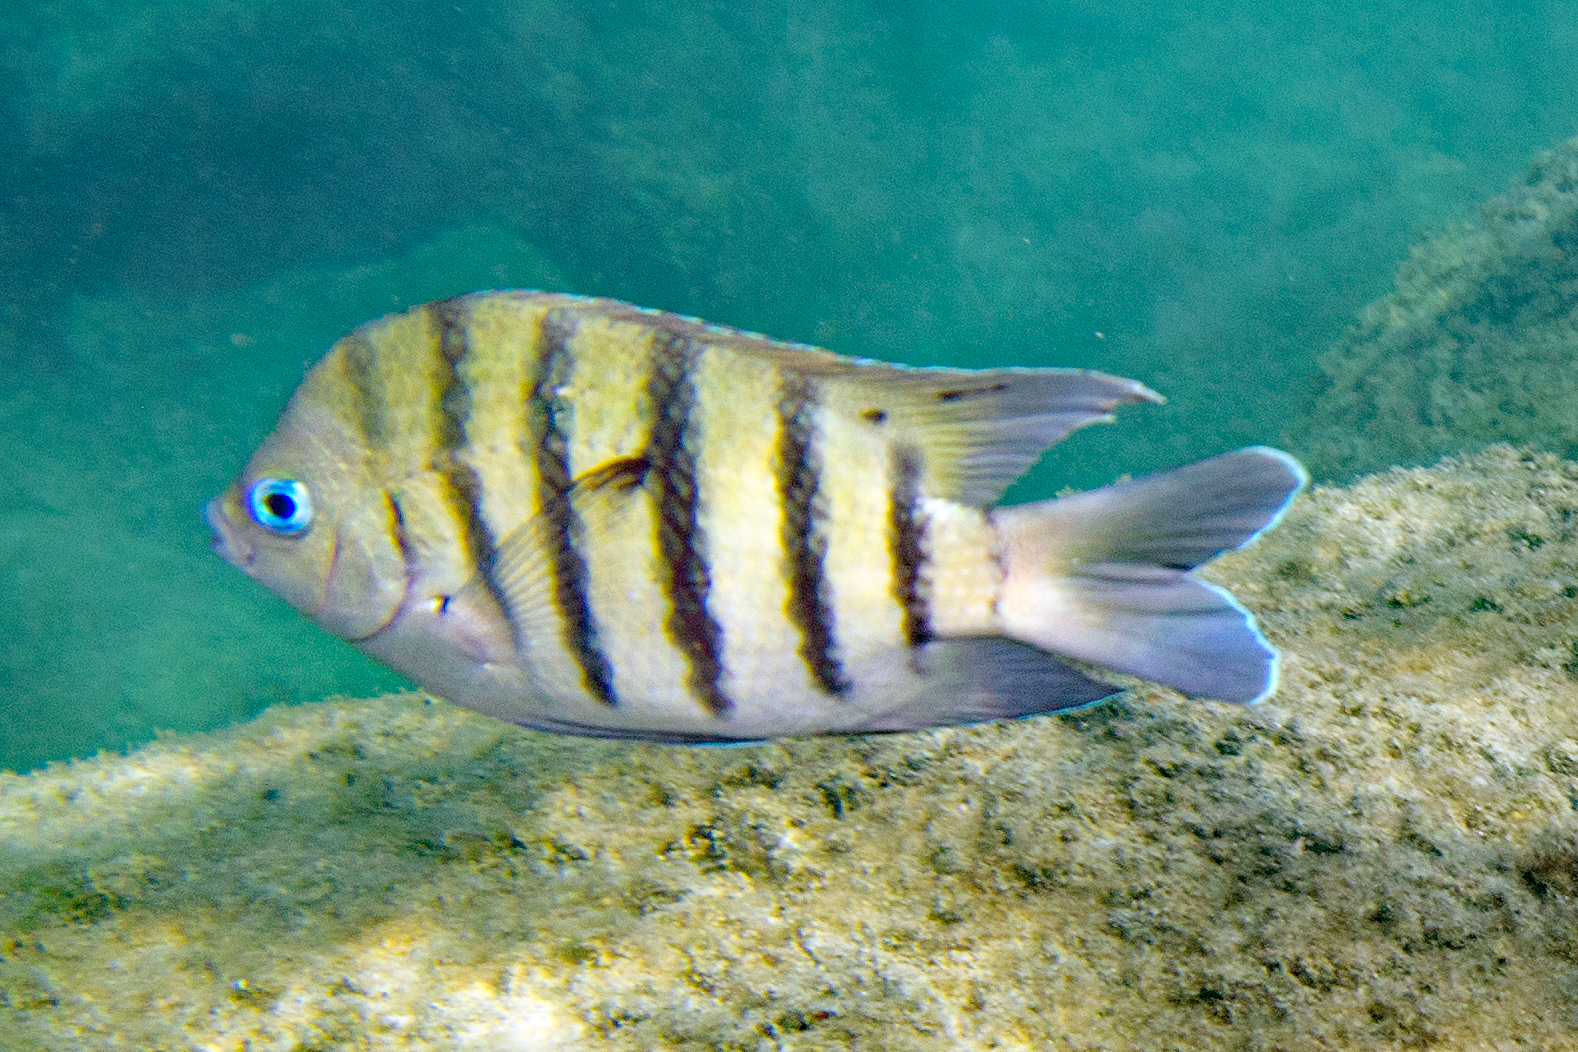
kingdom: Animalia
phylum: Chordata
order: Perciformes
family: Pomacentridae
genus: Abudefduf
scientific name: Abudefduf bengalensis
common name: Bengal sergeant
